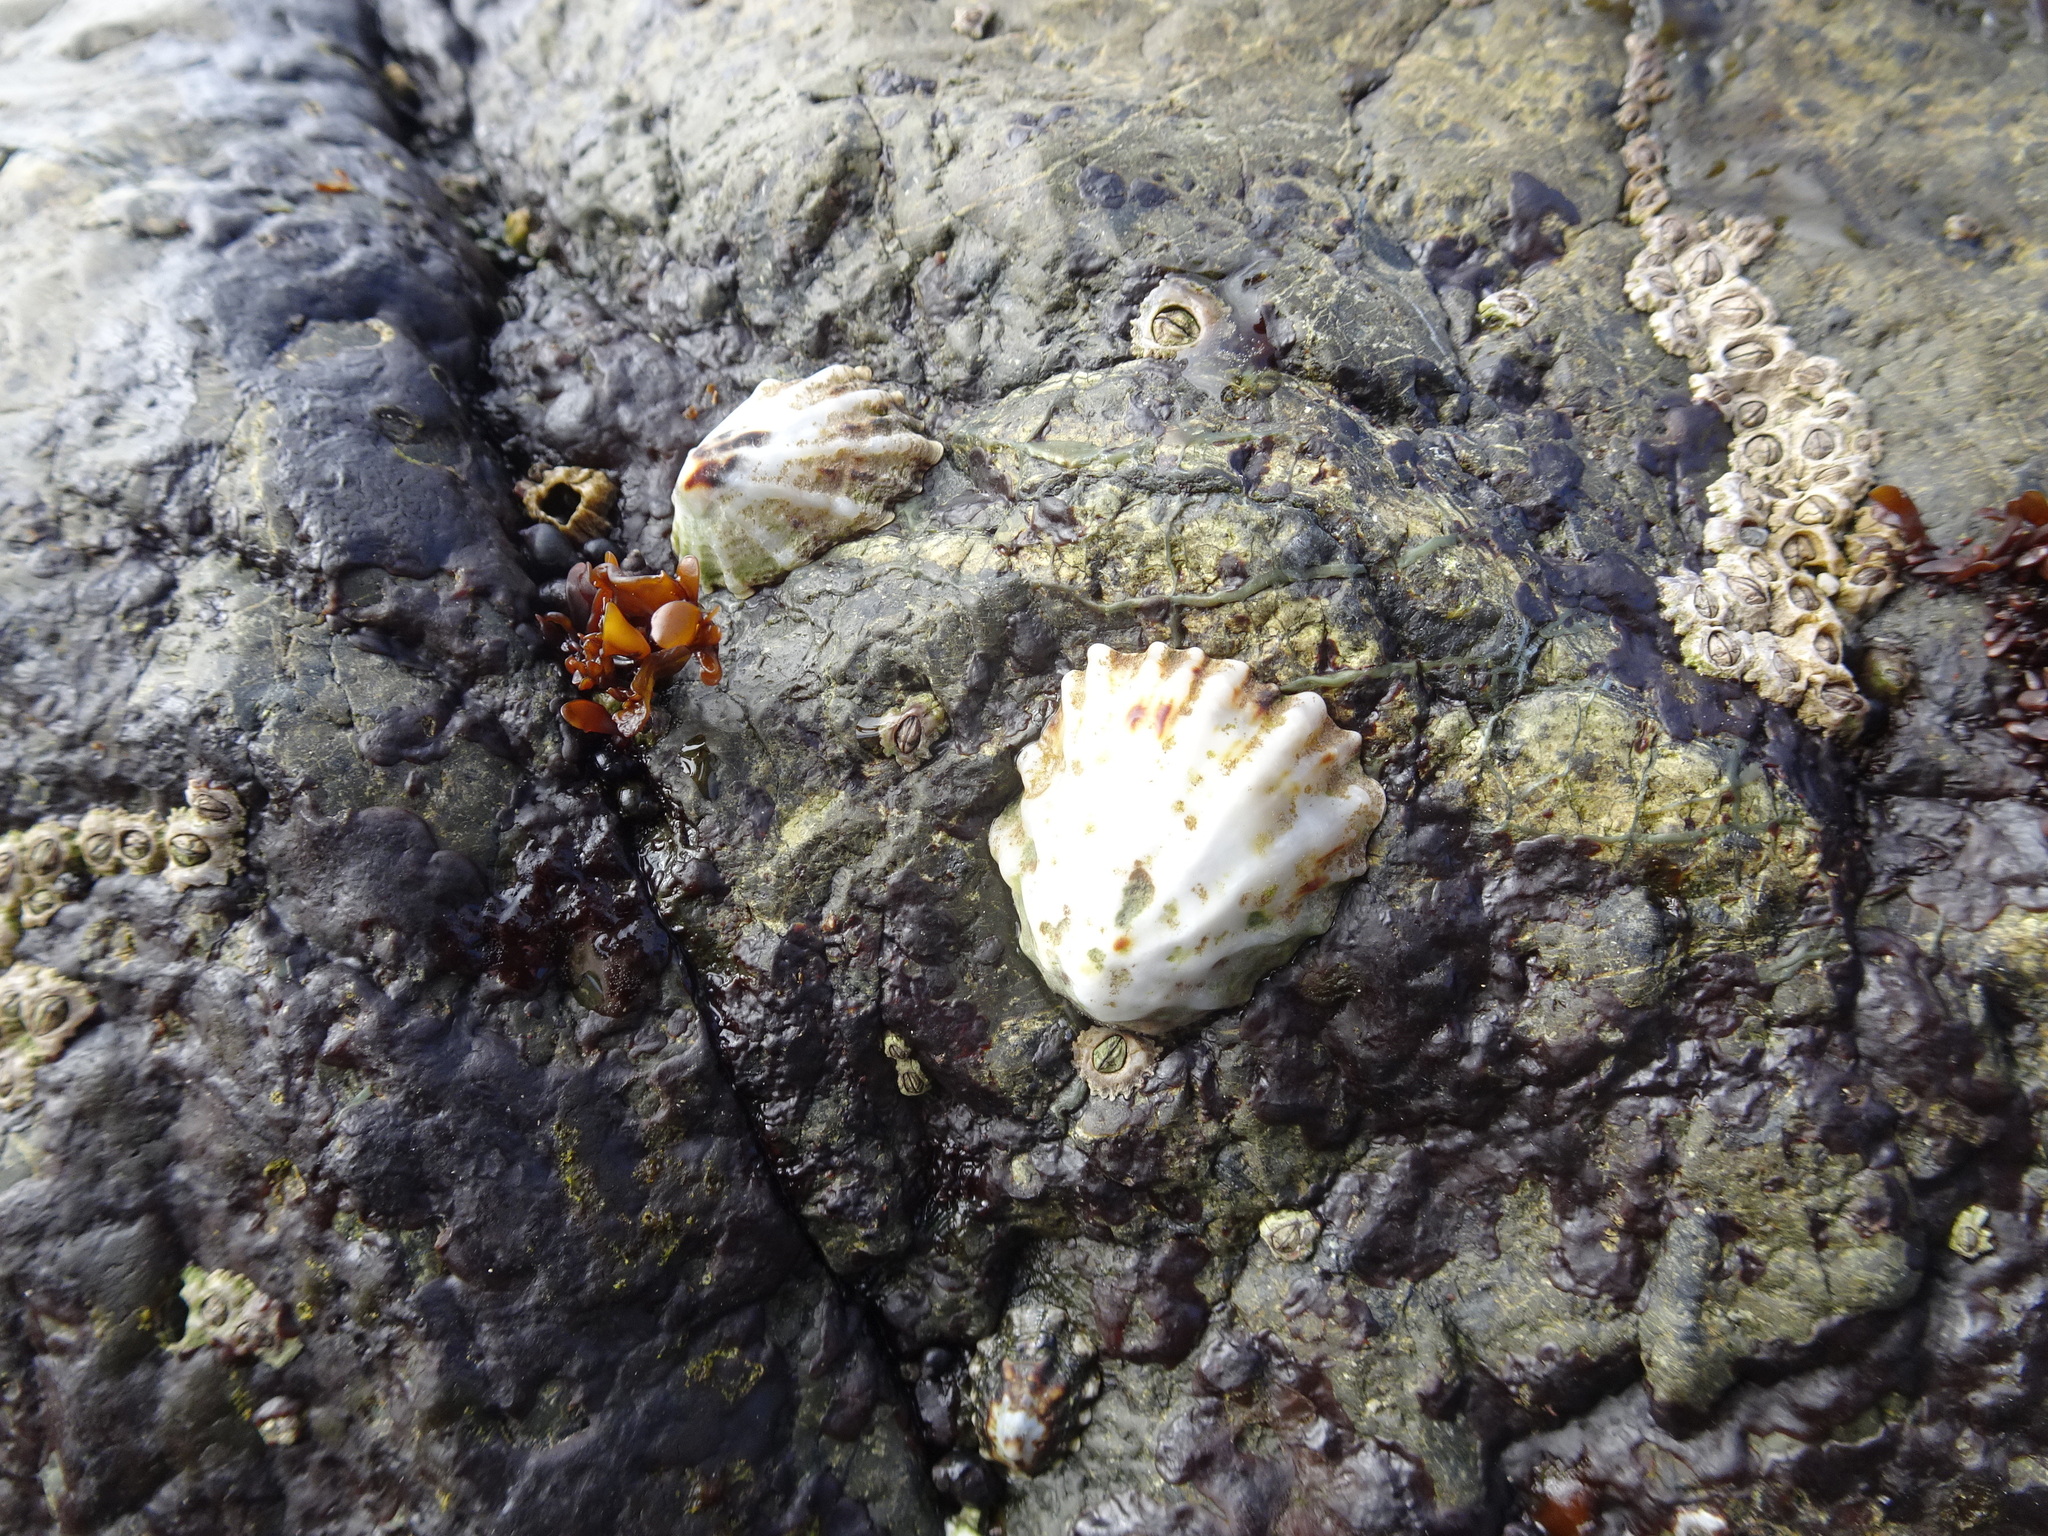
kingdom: Animalia
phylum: Mollusca
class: Gastropoda
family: Lottiidae
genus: Lottia
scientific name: Lottia scabra
